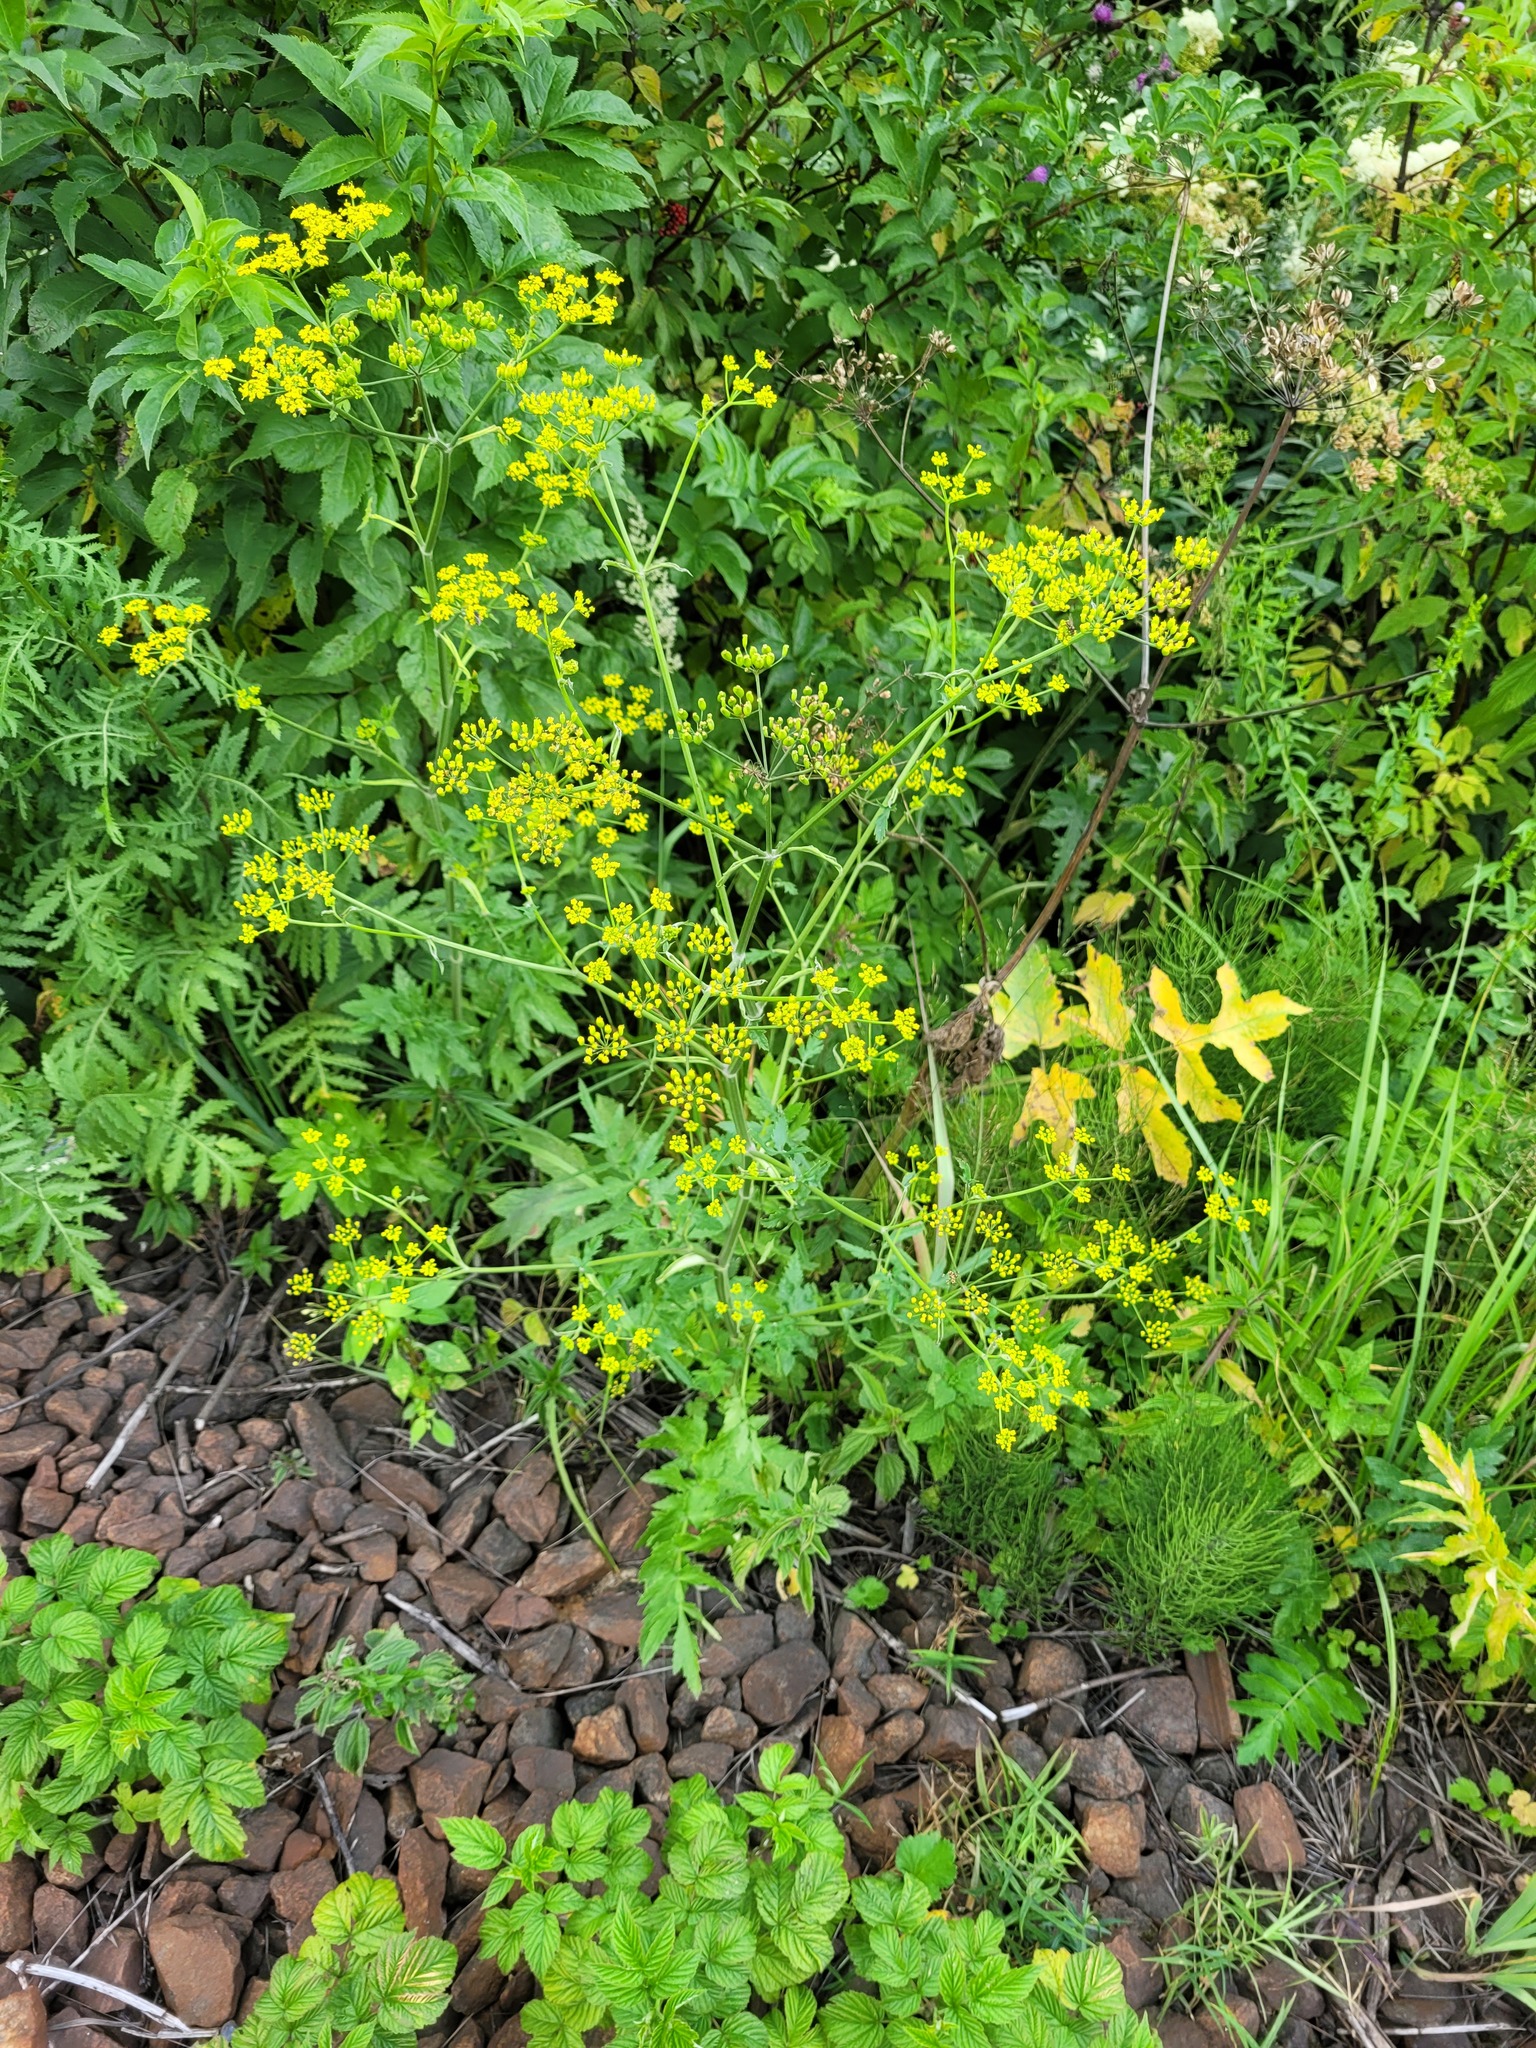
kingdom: Plantae
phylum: Tracheophyta
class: Magnoliopsida
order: Apiales
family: Apiaceae
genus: Pastinaca
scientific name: Pastinaca sativa
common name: Wild parsnip
